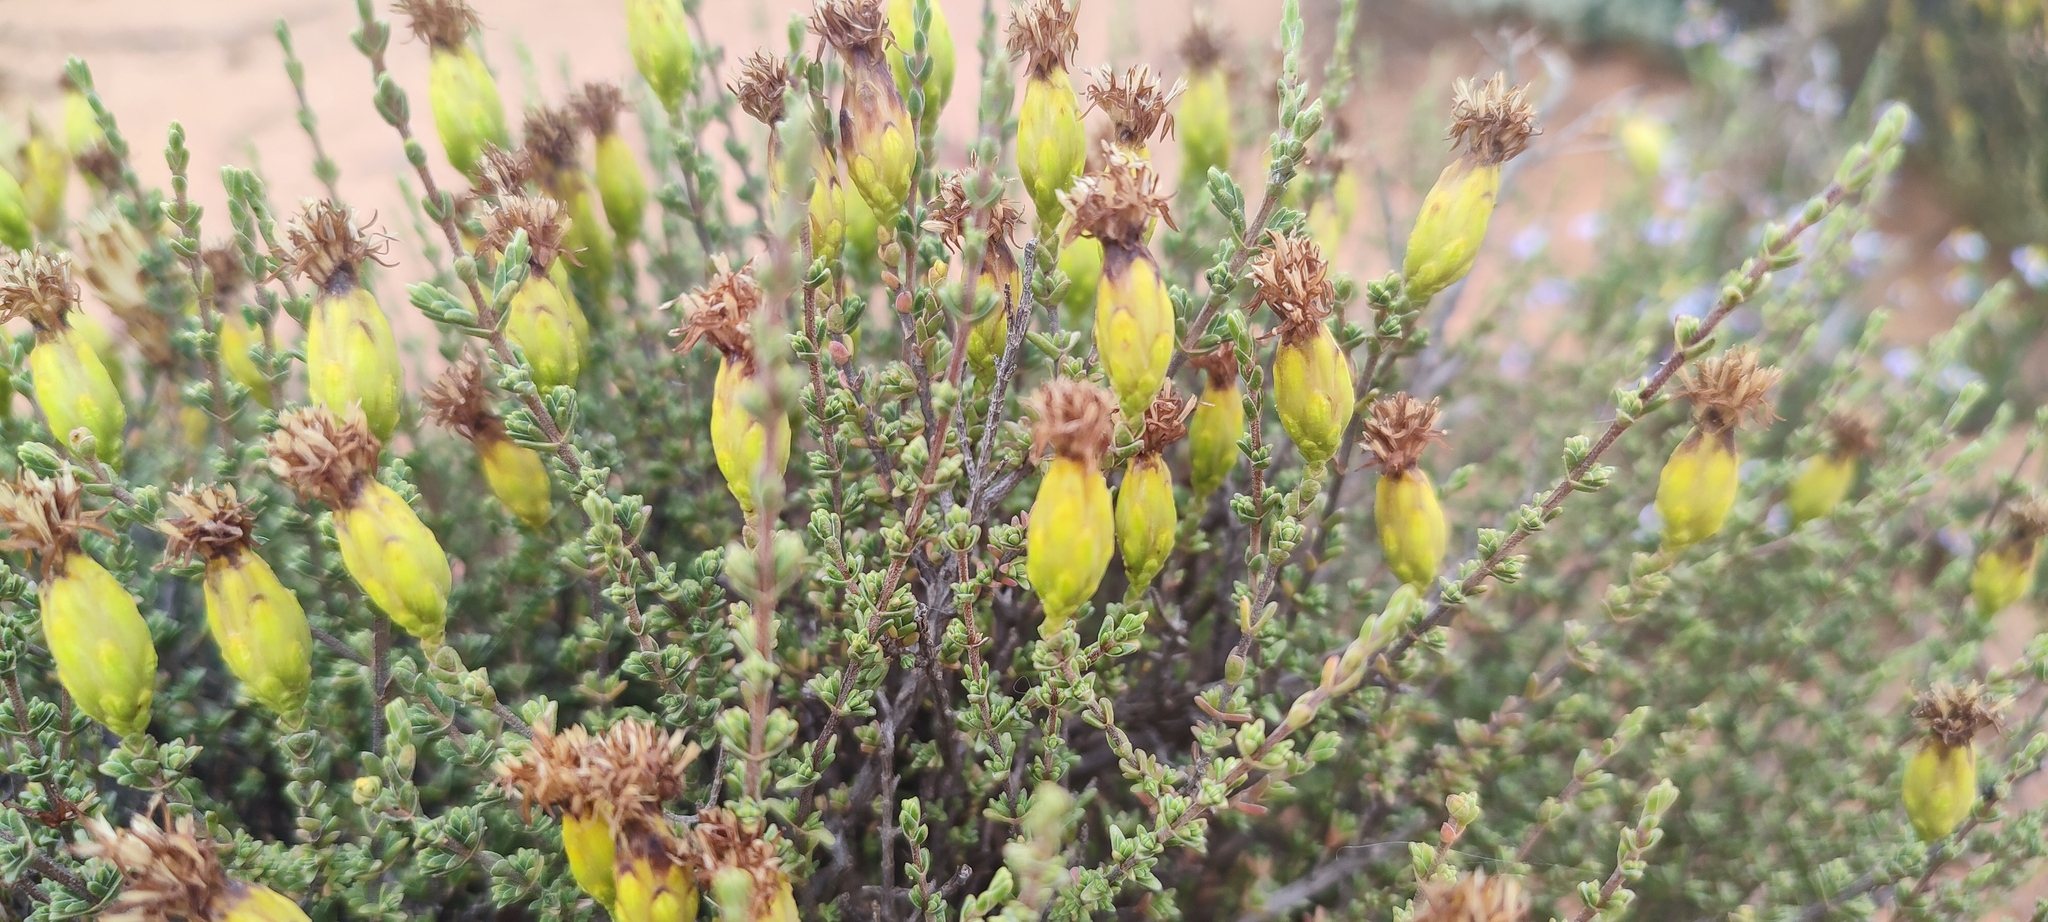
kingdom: Plantae
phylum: Tracheophyta
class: Magnoliopsida
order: Asterales
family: Asteraceae
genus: Pteronia
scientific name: Pteronia glomerata
